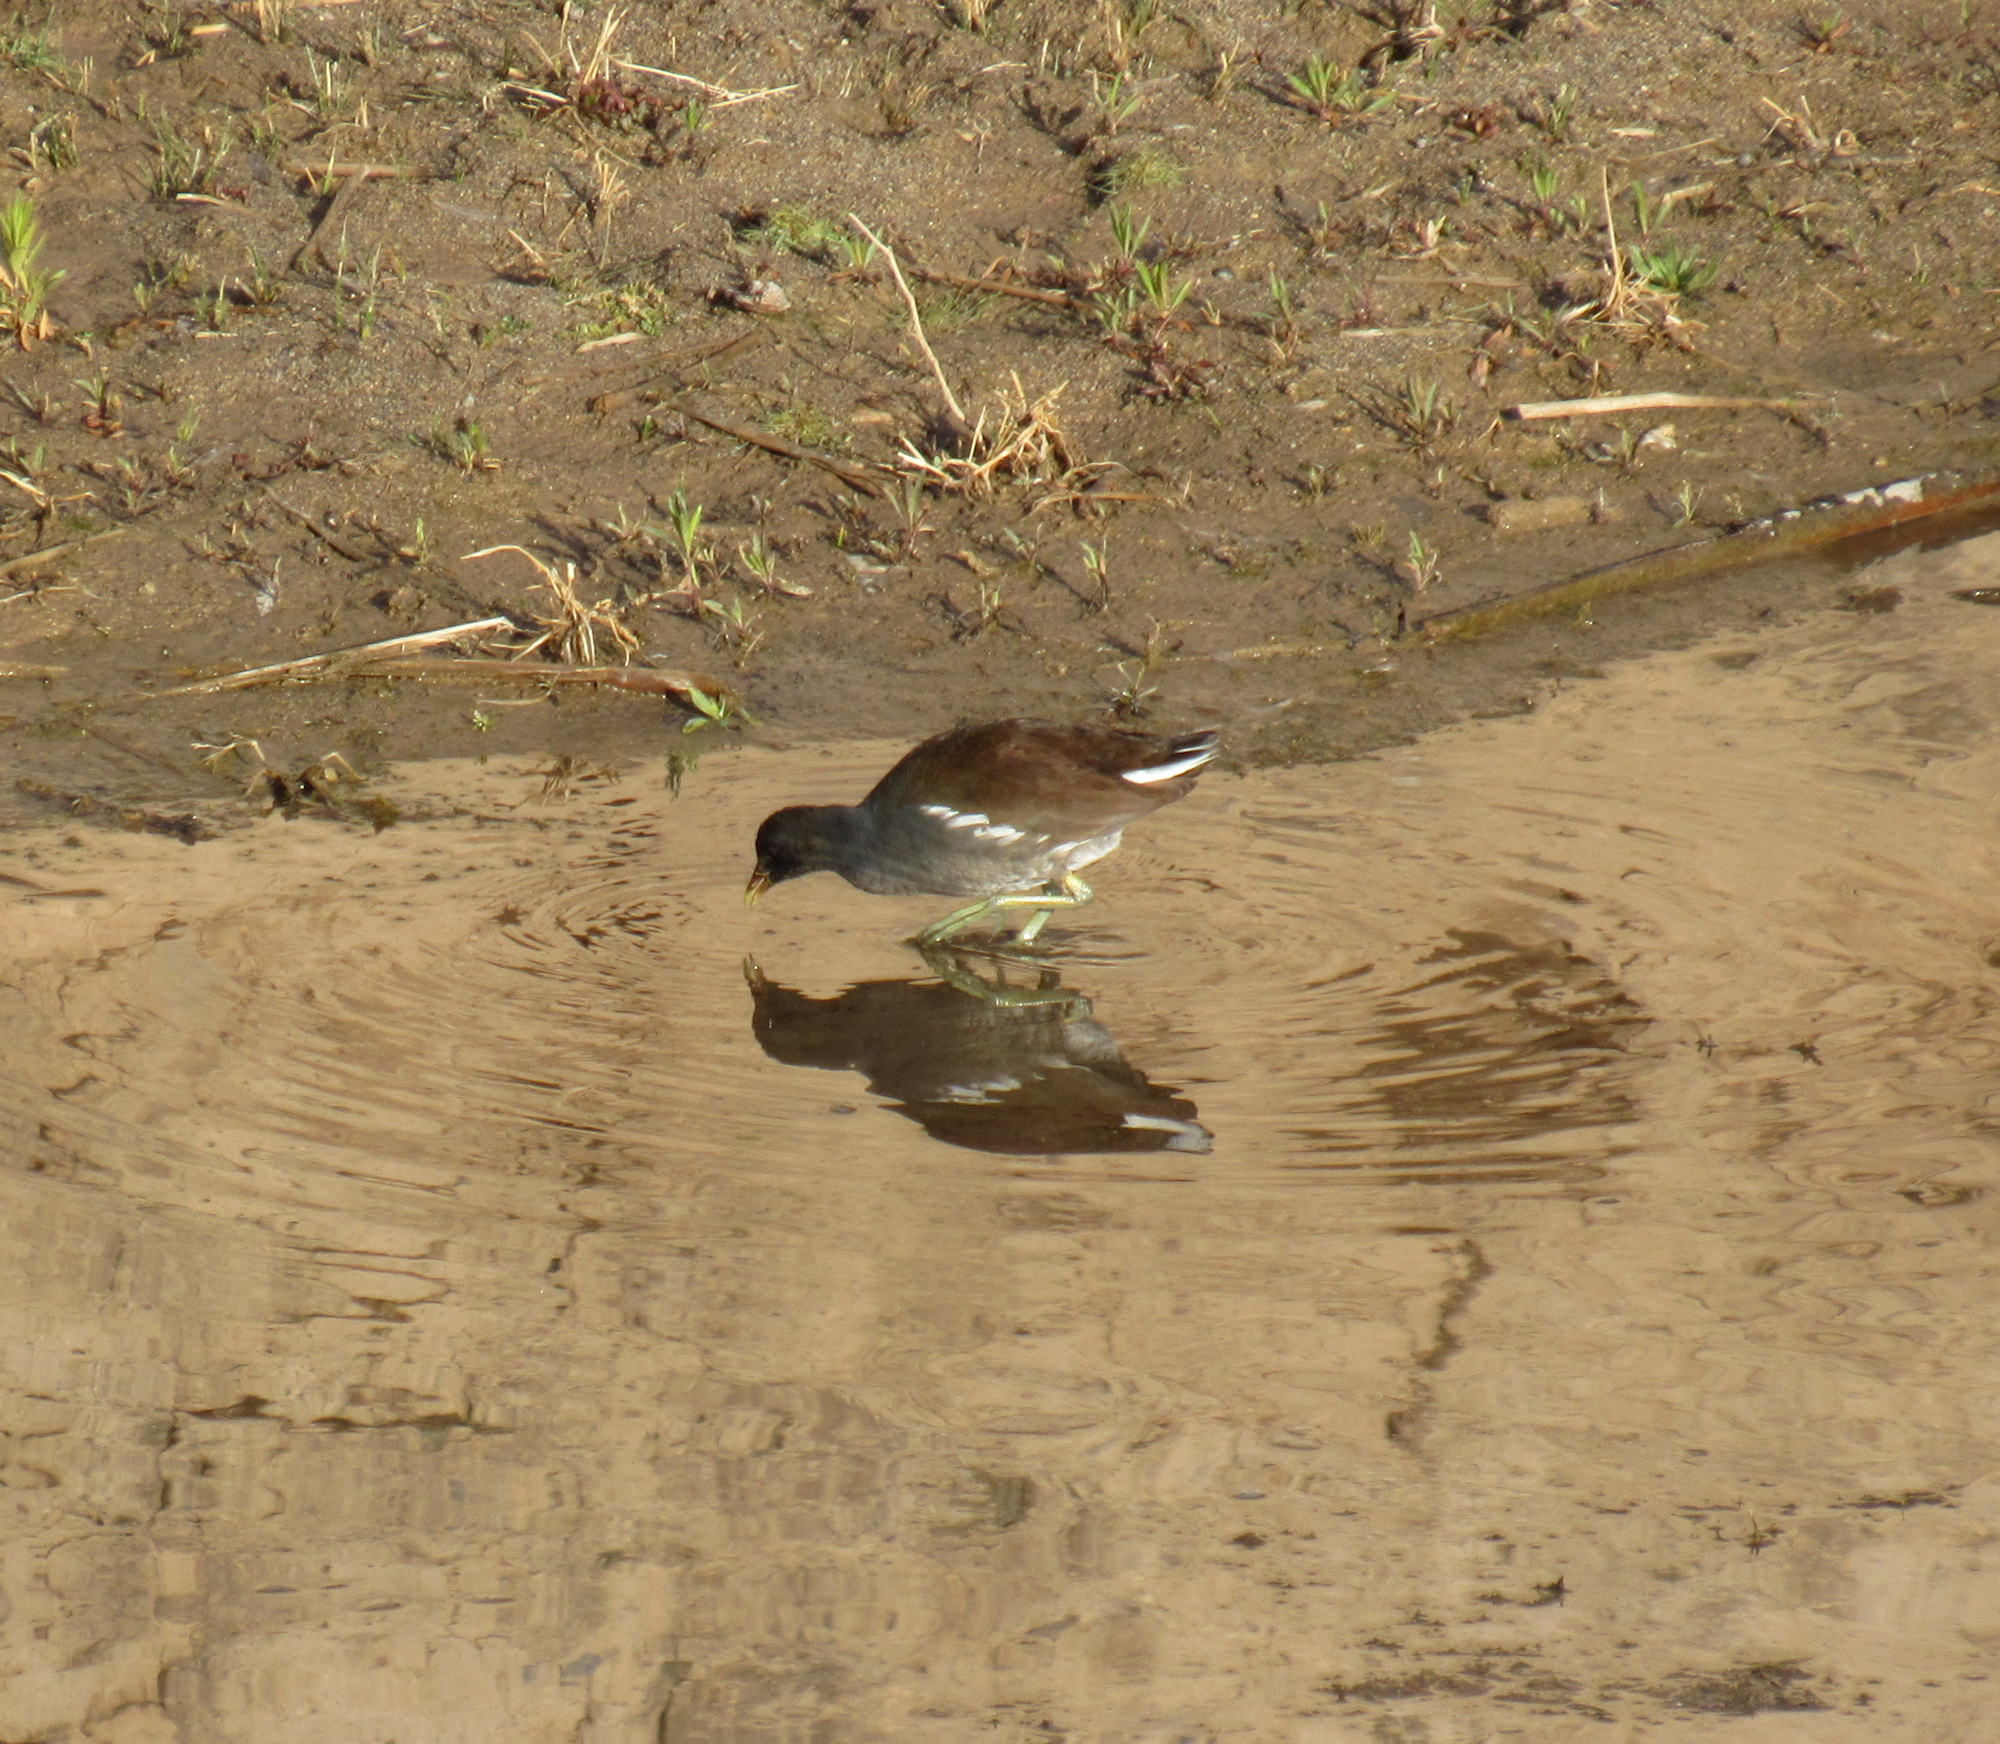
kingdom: Animalia
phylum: Chordata
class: Aves
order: Gruiformes
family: Rallidae
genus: Gallinula
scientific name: Gallinula chloropus
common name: Common moorhen
